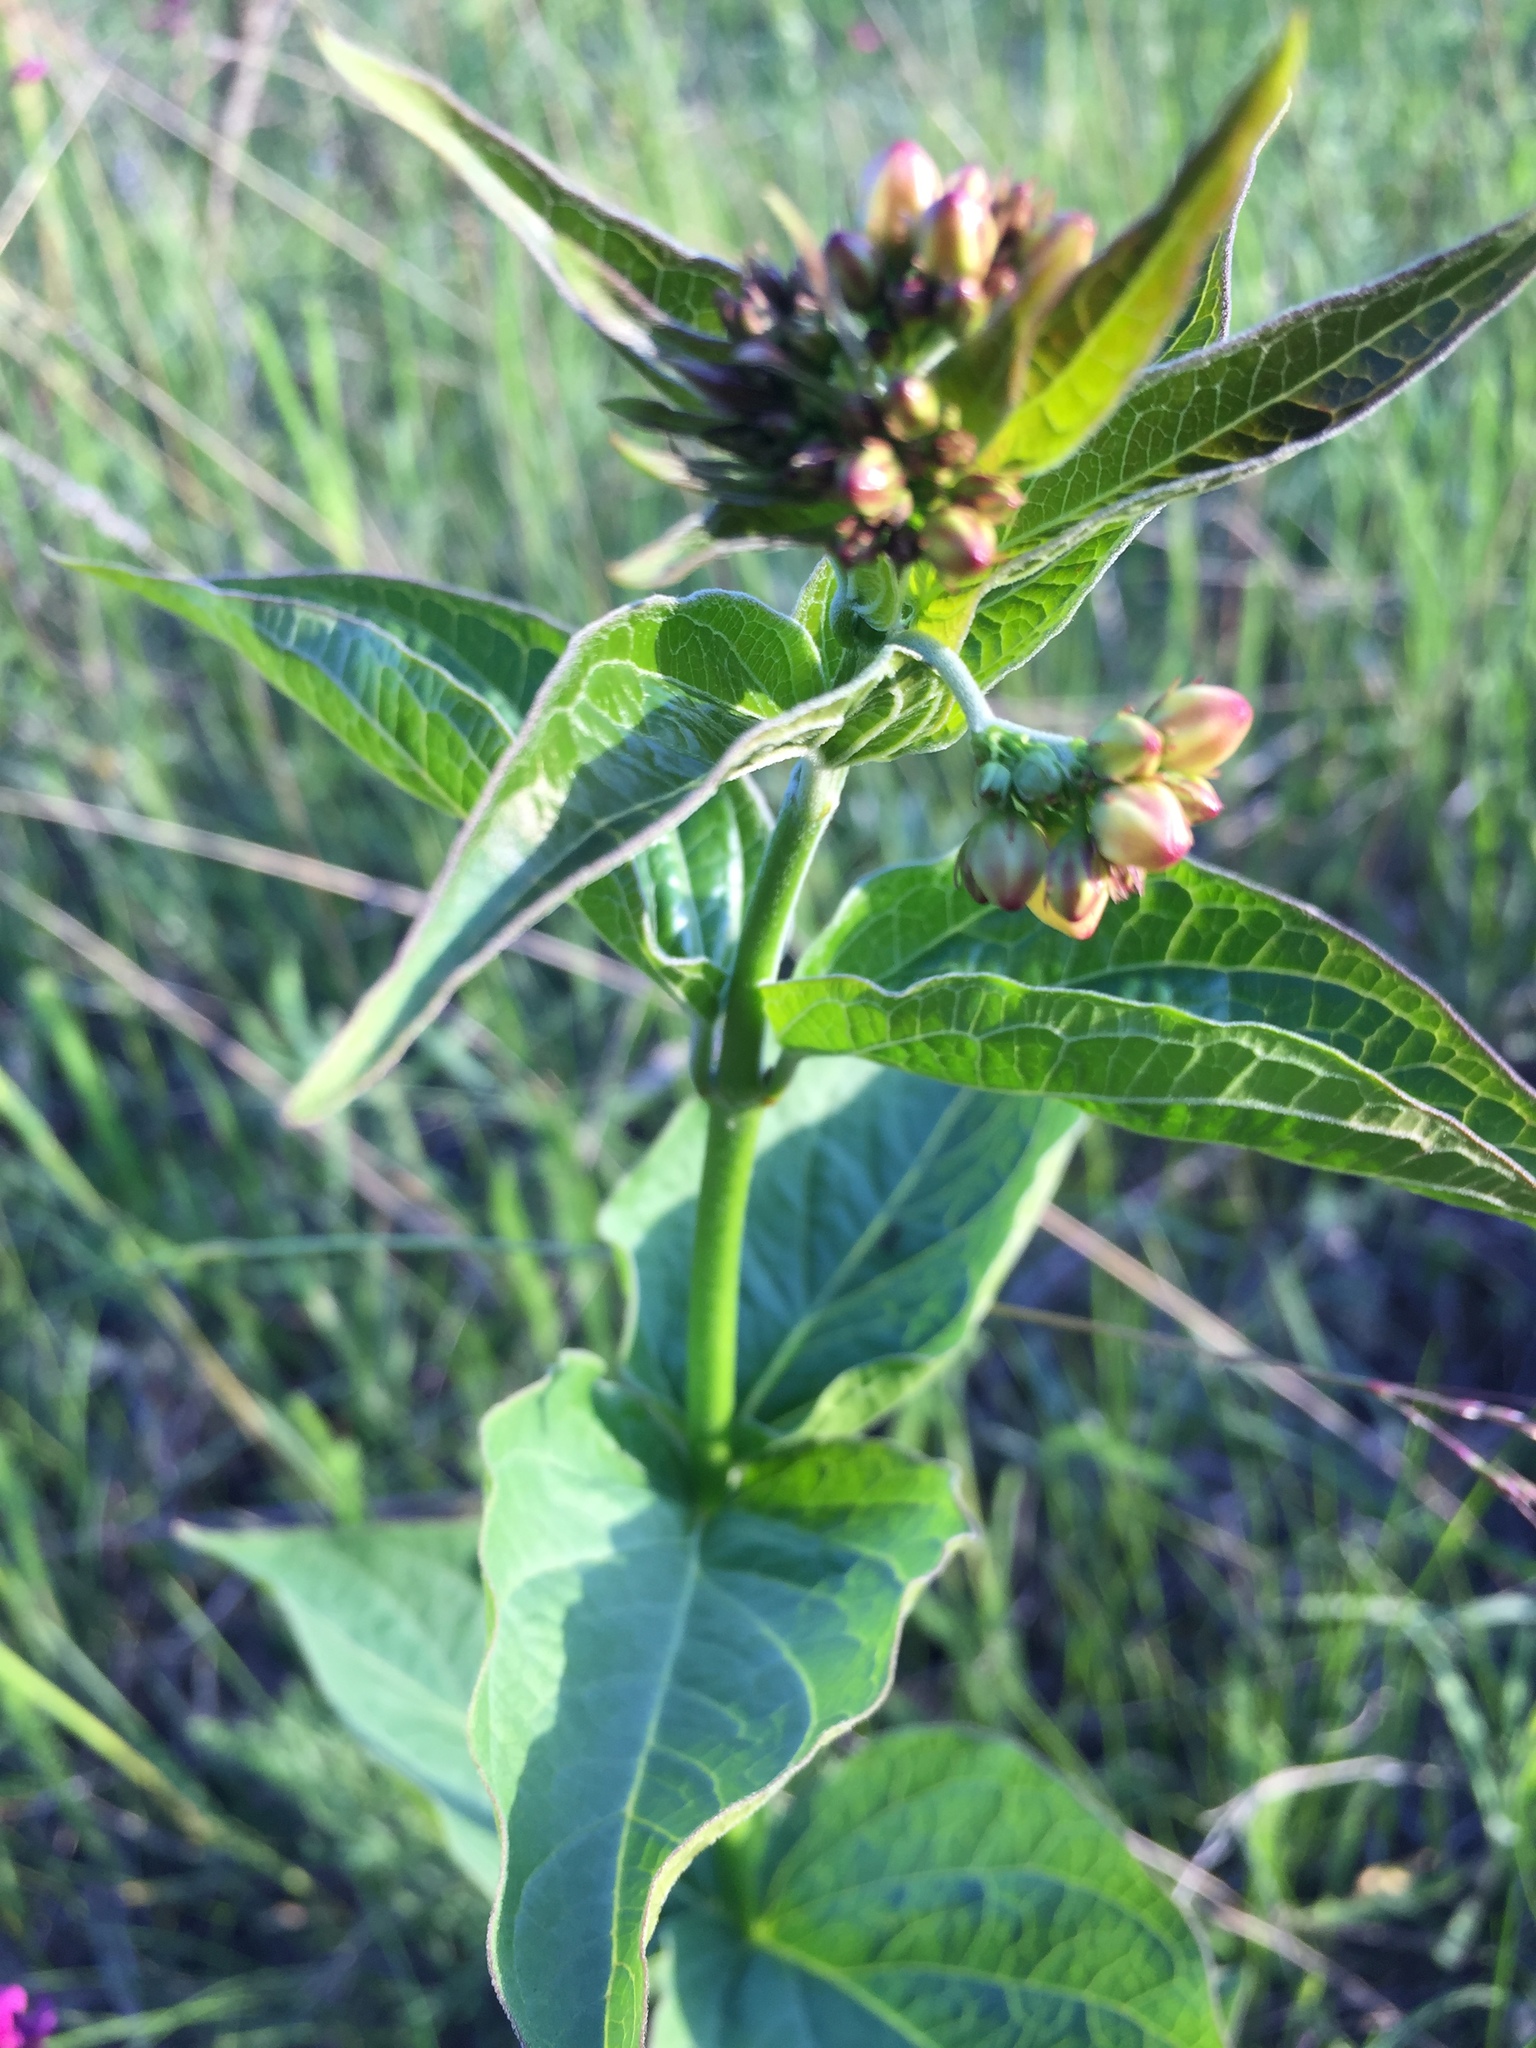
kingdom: Plantae
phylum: Tracheophyta
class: Magnoliopsida
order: Gentianales
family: Apocynaceae
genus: Vincetoxicum
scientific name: Vincetoxicum hirundinaria
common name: White swallowwort
